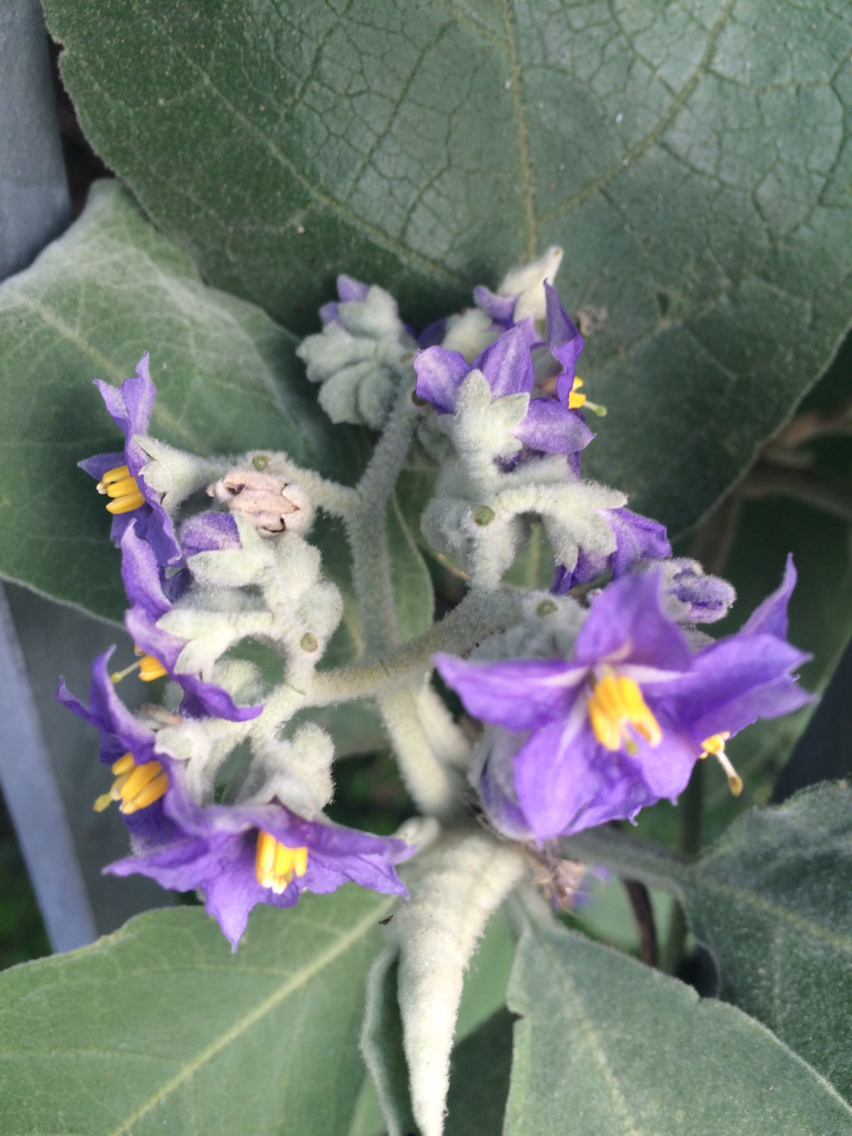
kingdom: Plantae
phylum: Tracheophyta
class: Magnoliopsida
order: Solanales
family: Solanaceae
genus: Solanum
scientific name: Solanum mauritianum
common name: Earleaf nightshade
